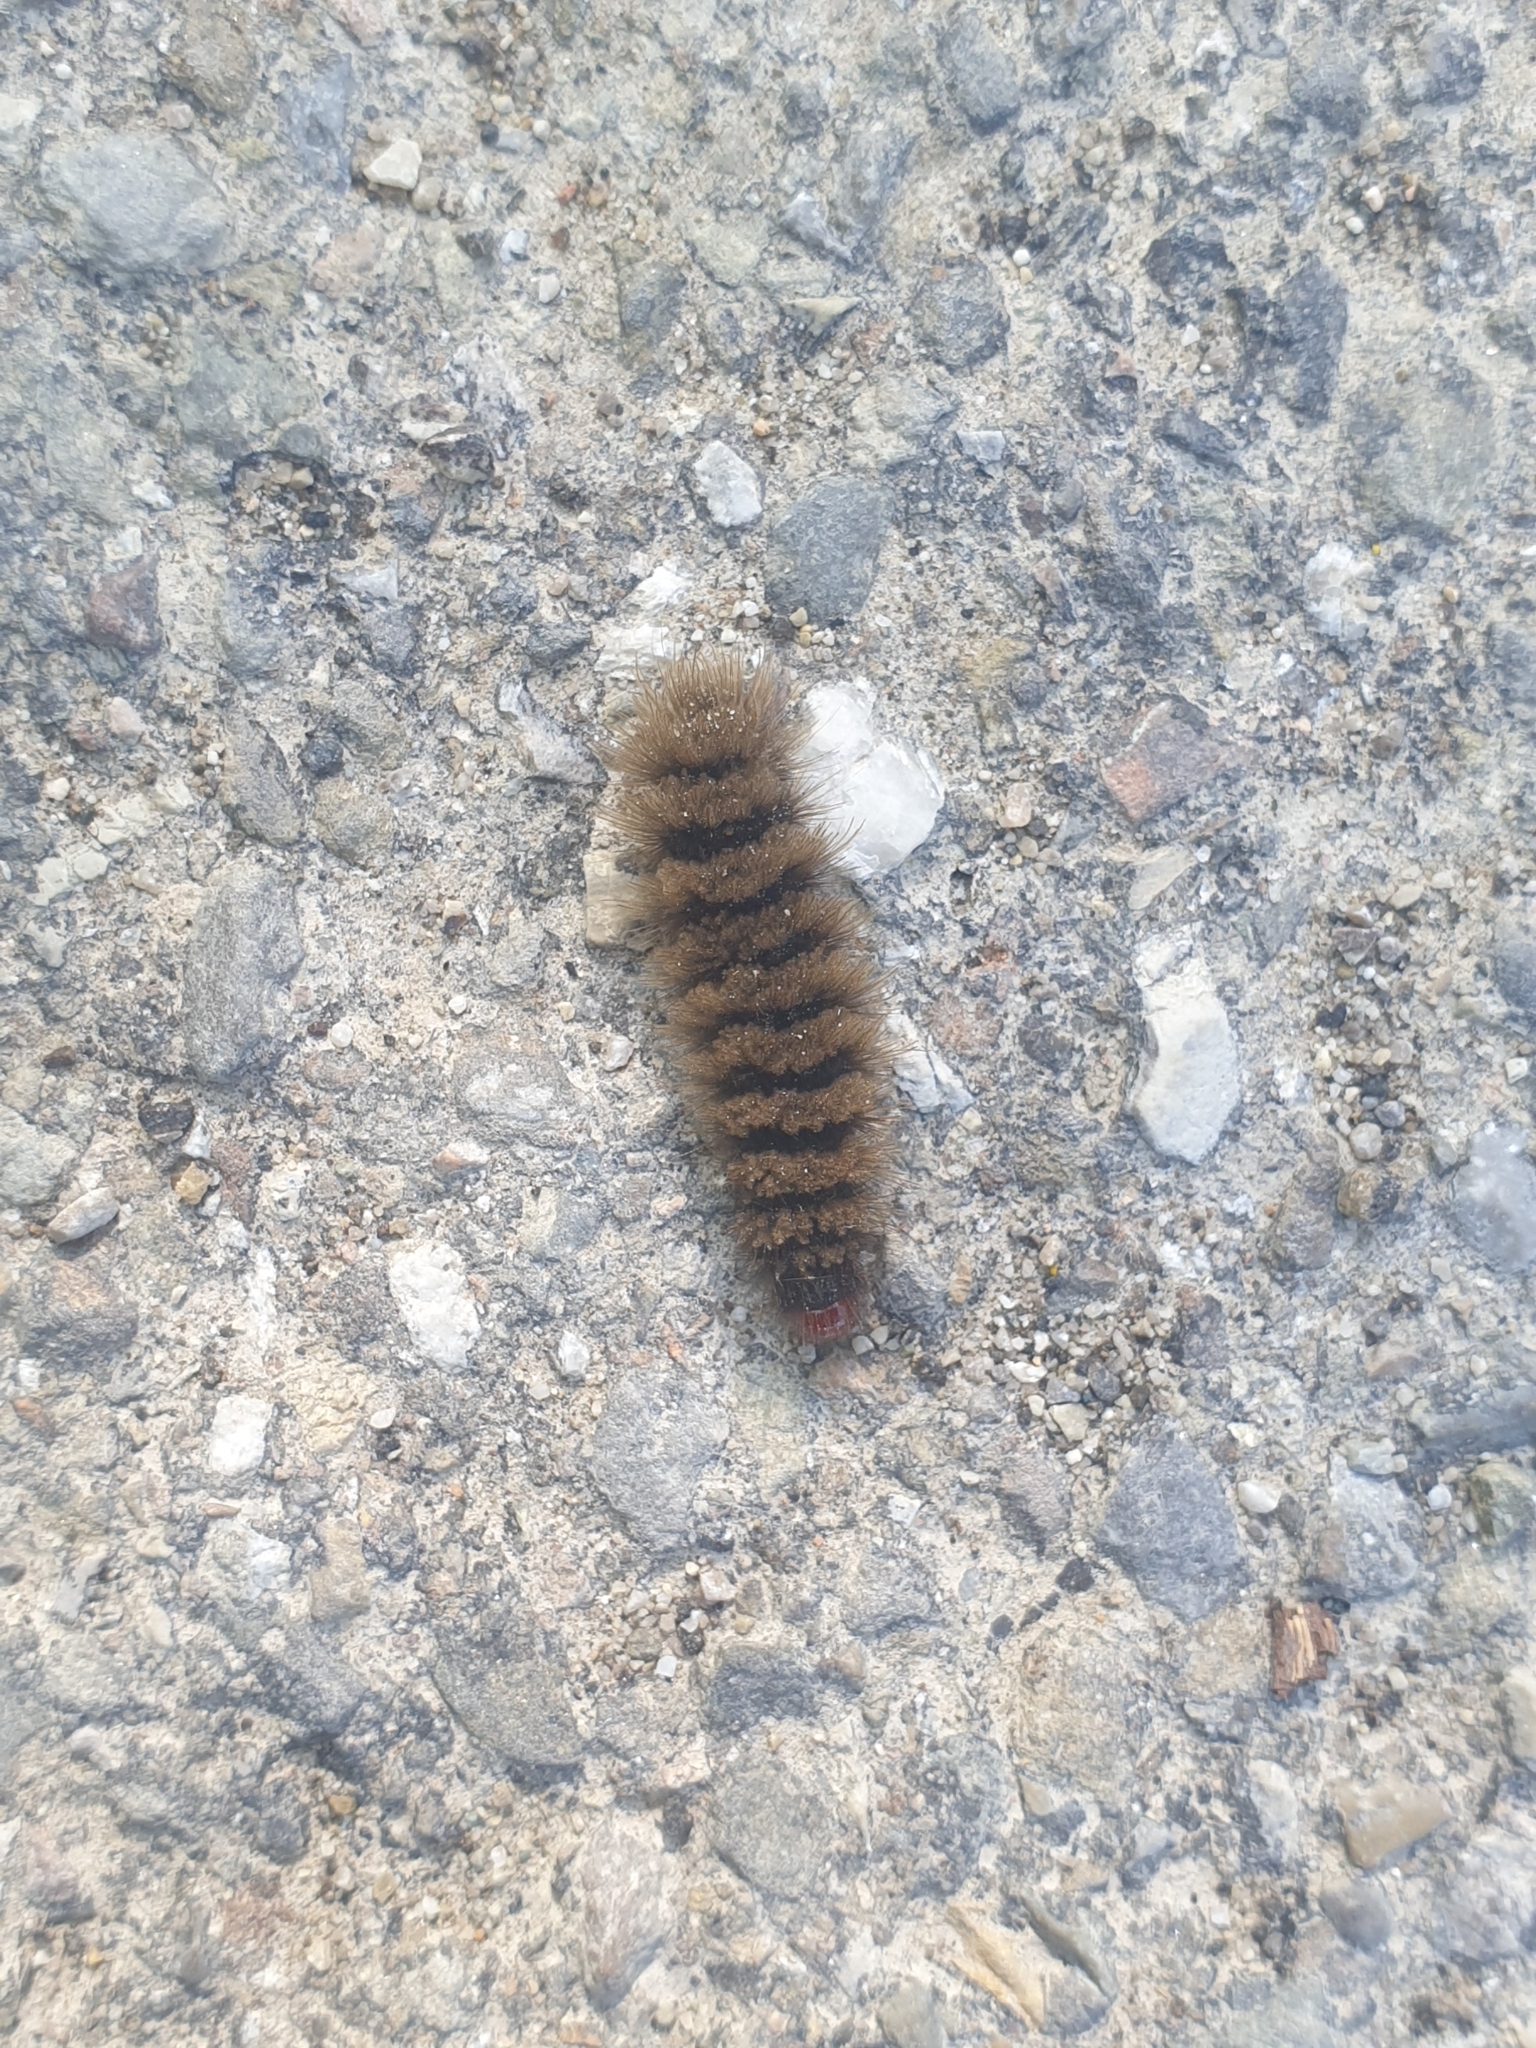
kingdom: Animalia
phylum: Arthropoda
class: Insecta
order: Lepidoptera
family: Erebidae
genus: Amata
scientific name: Amata phegea
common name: Nine-spotted
